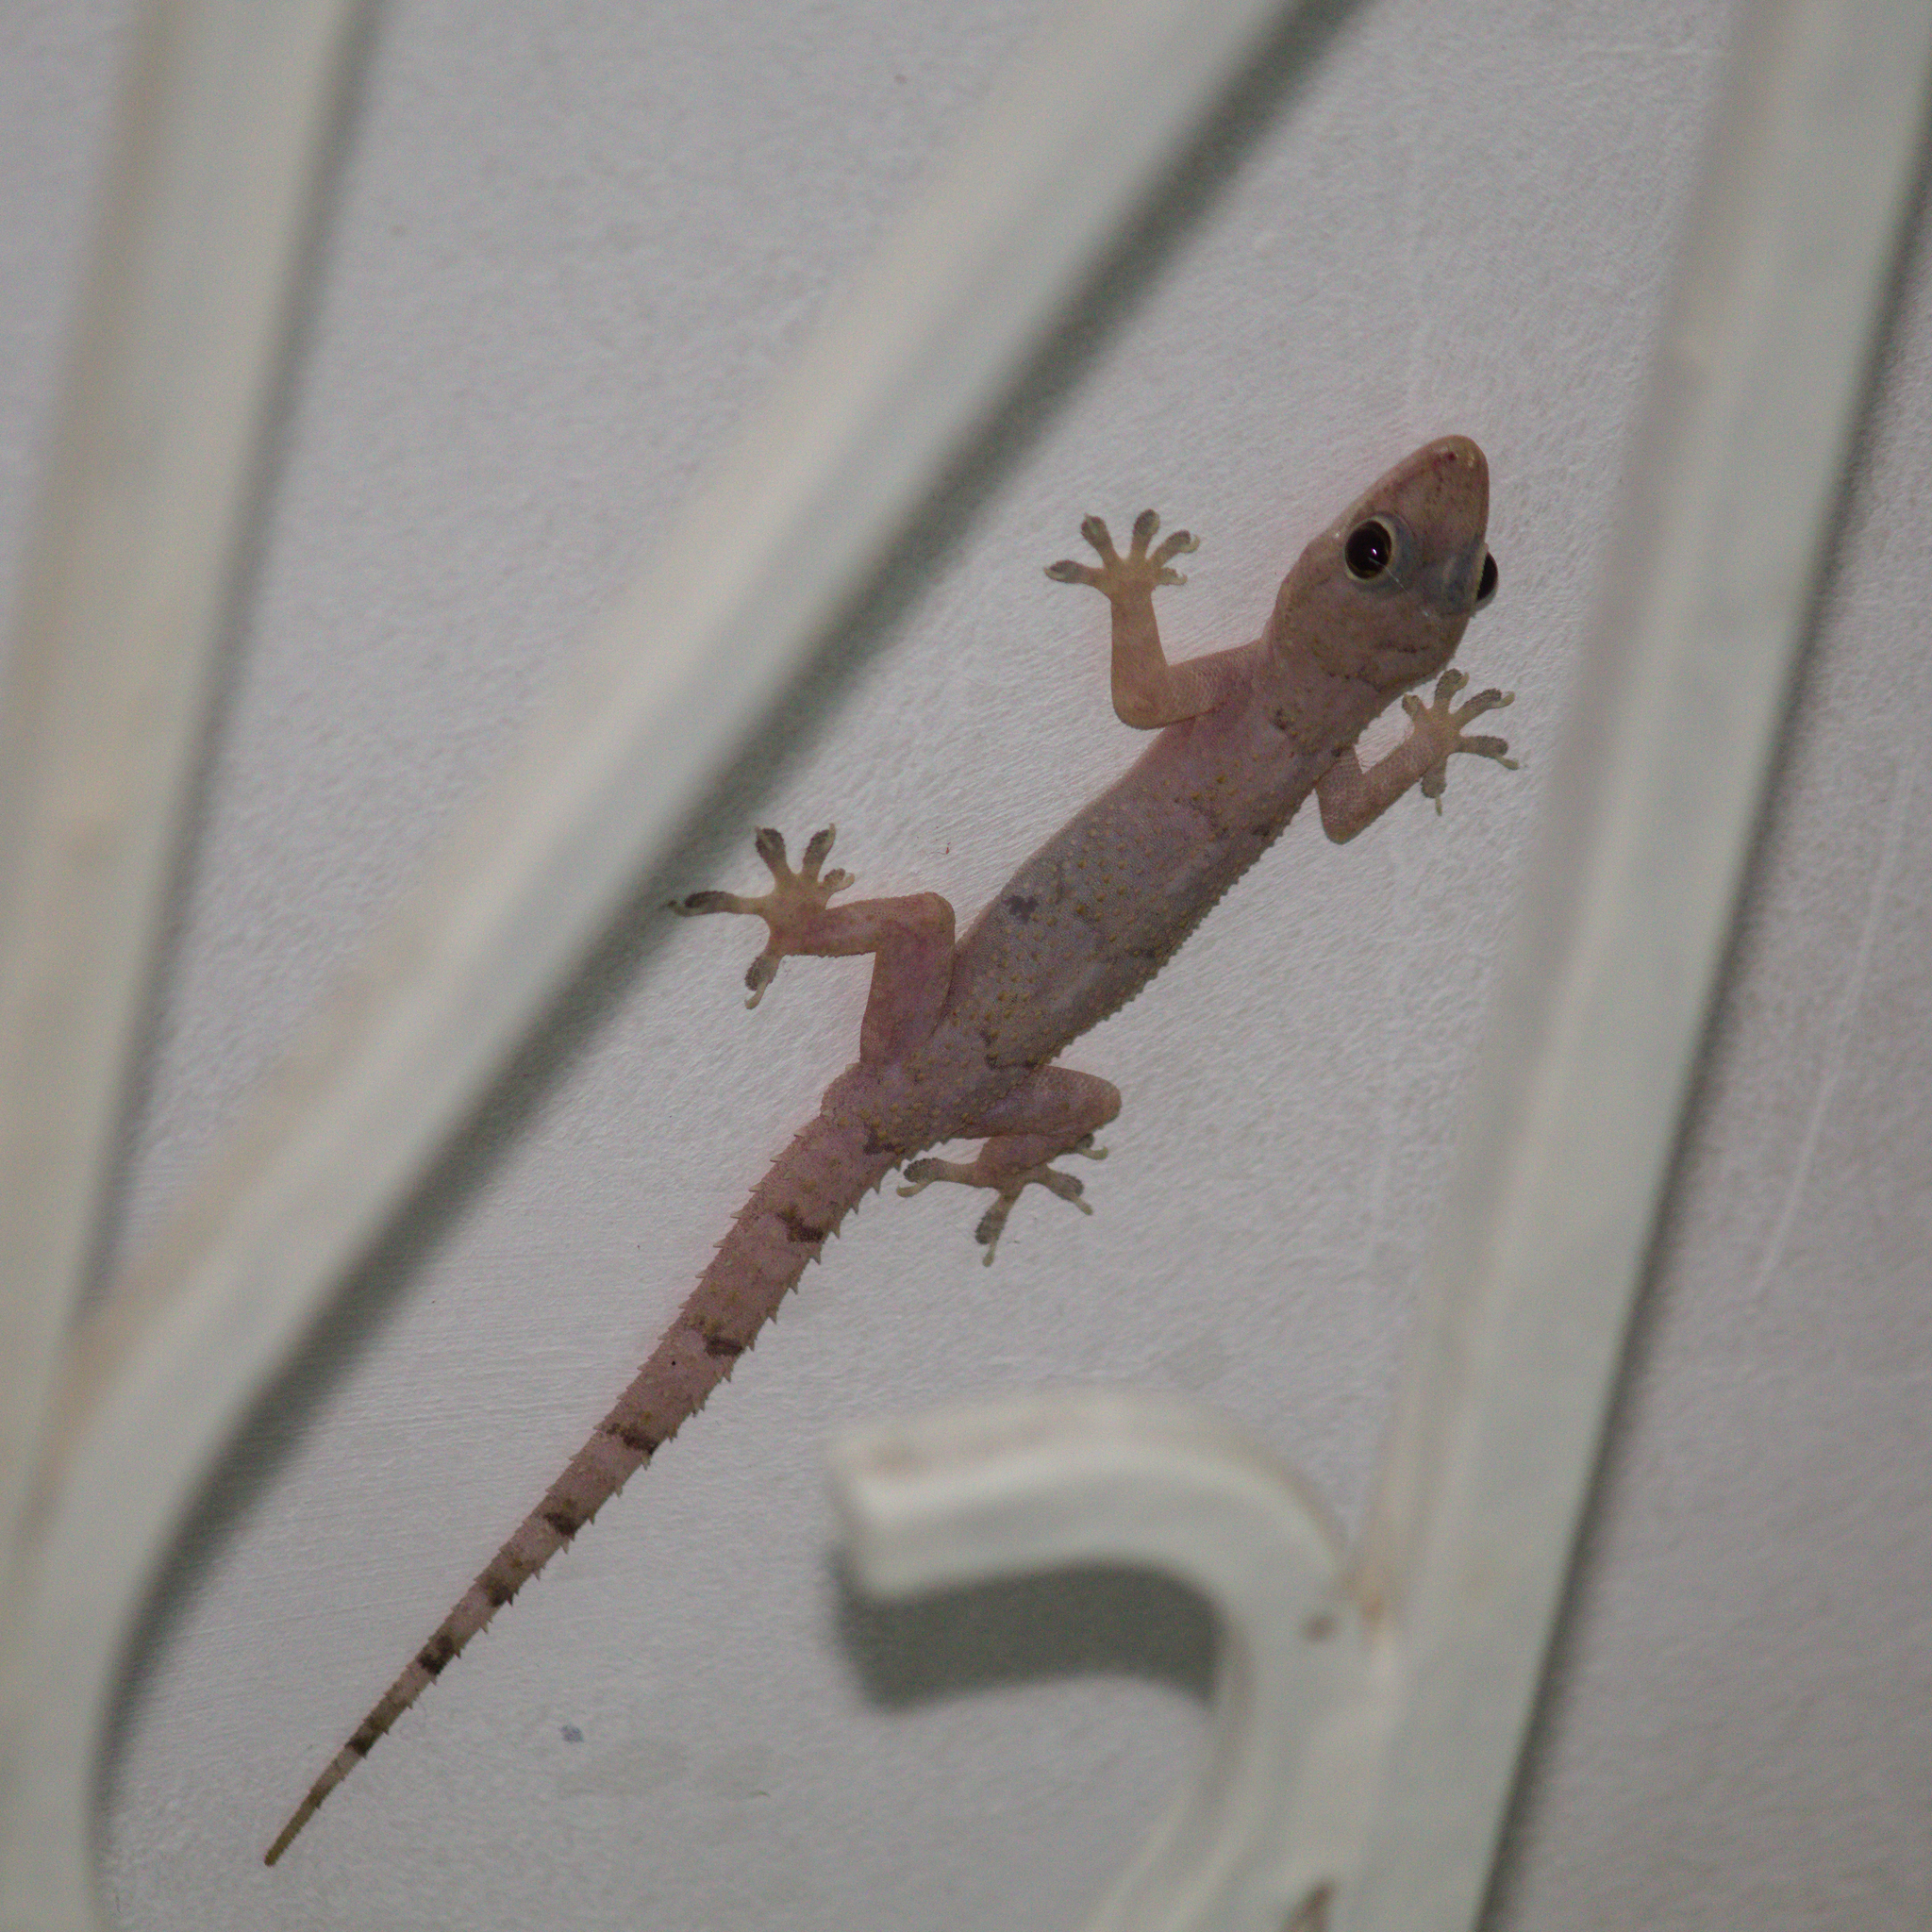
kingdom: Animalia
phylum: Chordata
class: Squamata
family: Gekkonidae
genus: Hemidactylus
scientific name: Hemidactylus mabouia
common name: House gecko
